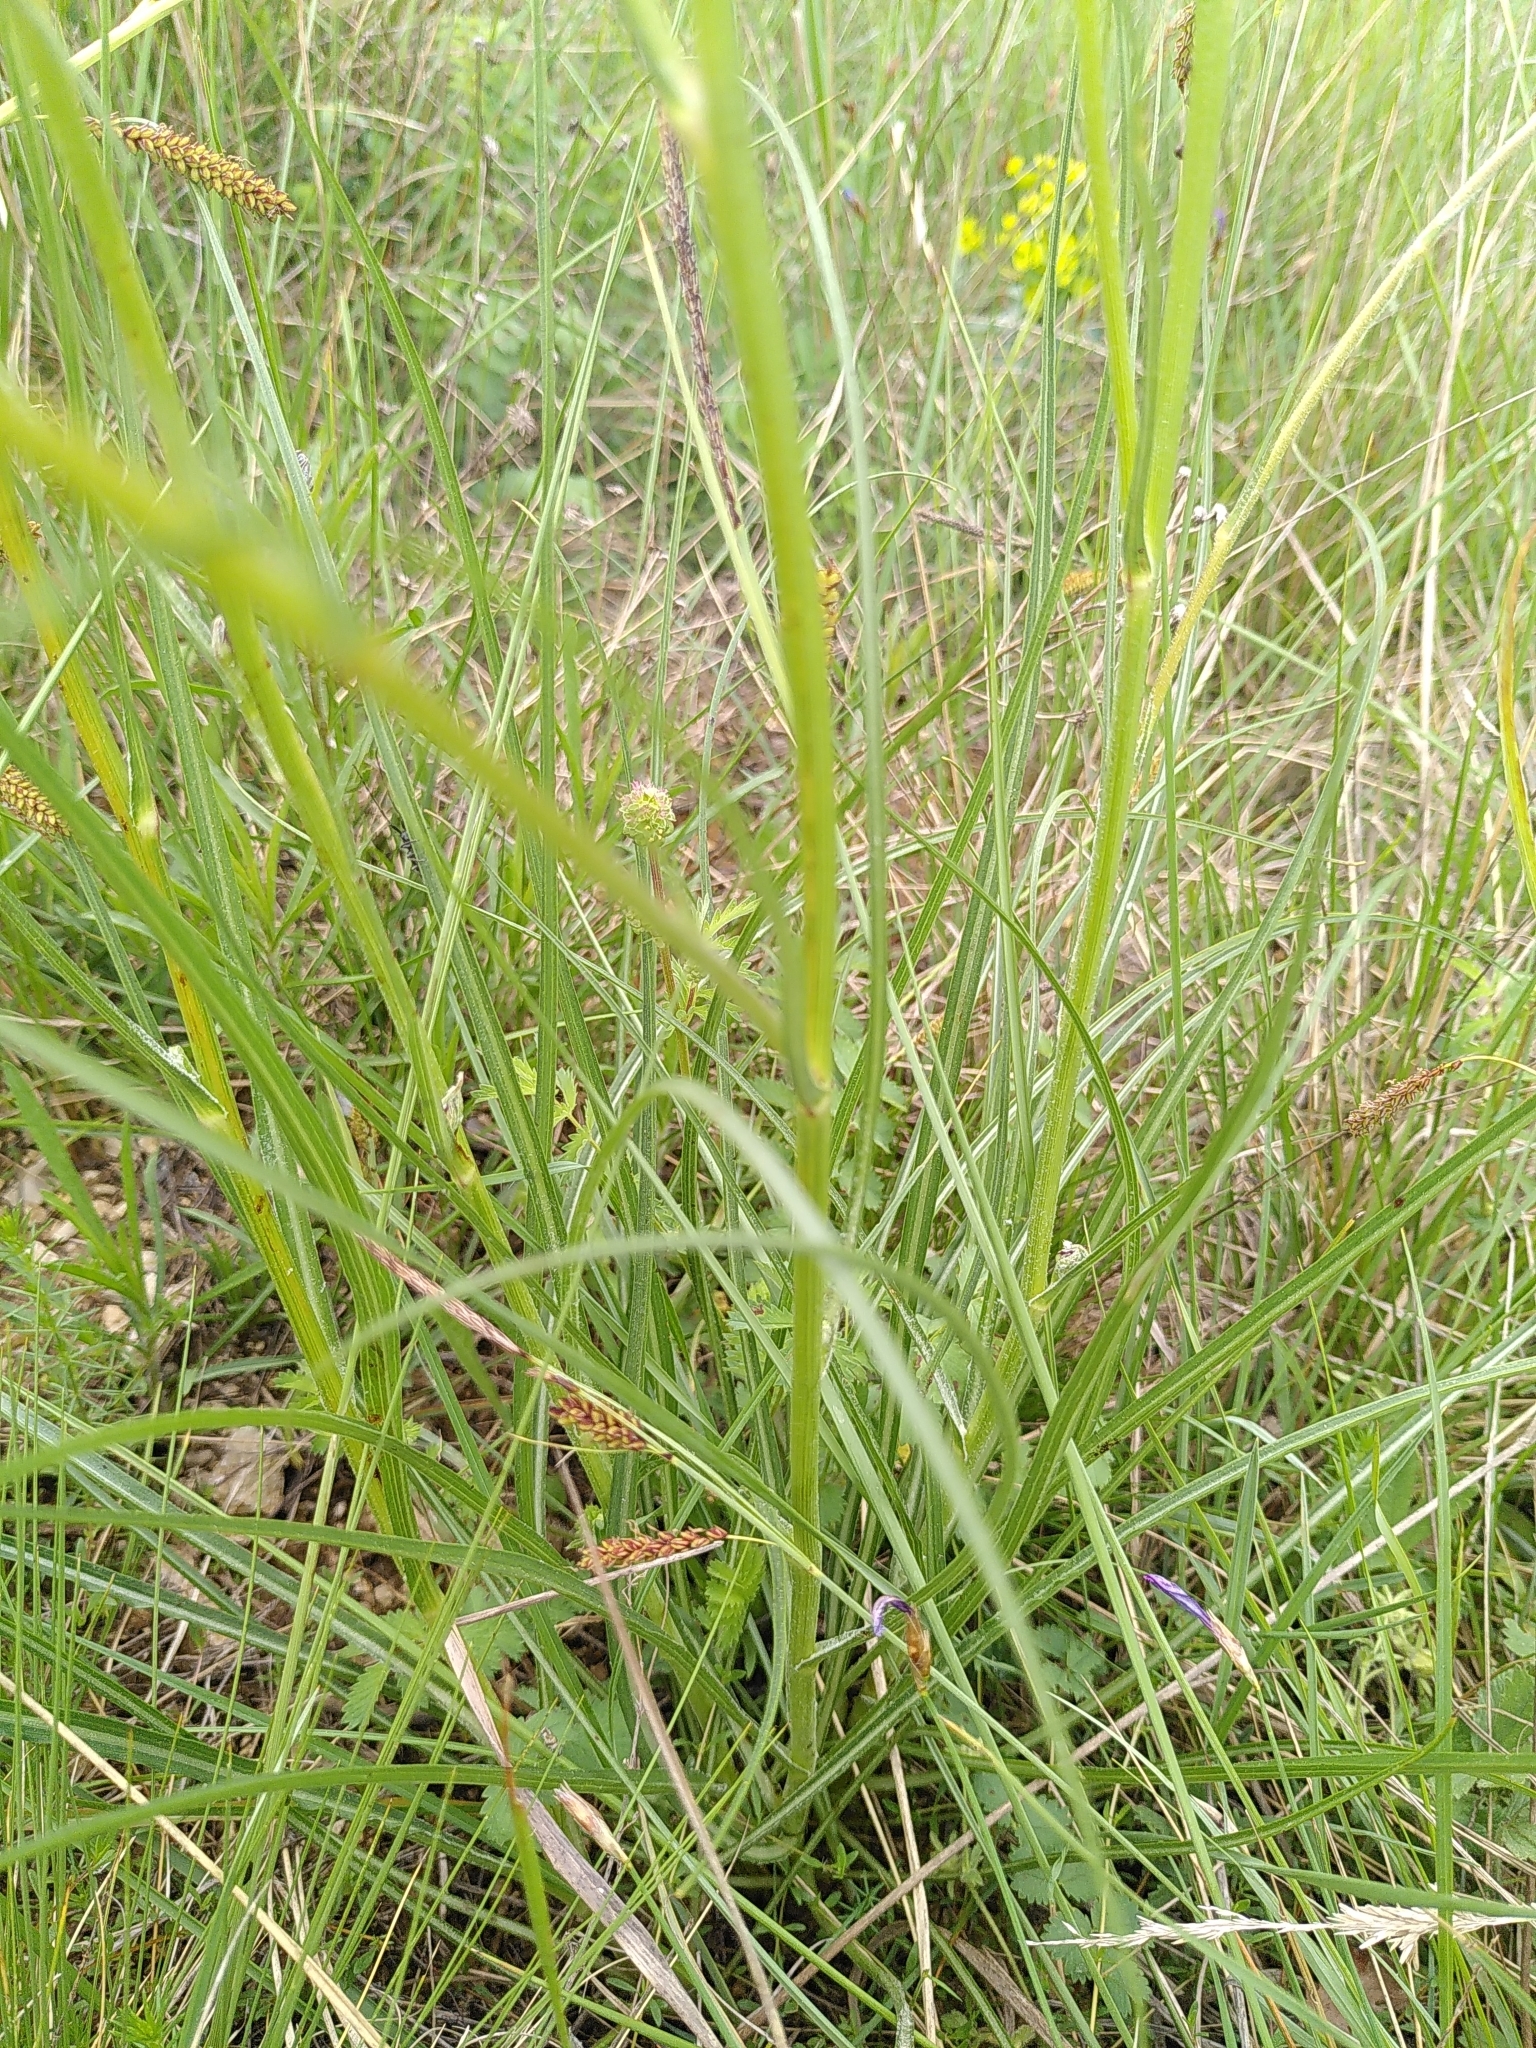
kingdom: Plantae
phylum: Tracheophyta
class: Magnoliopsida
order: Asterales
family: Asteraceae
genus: Pseudopodospermum
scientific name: Pseudopodospermum hispanicum
